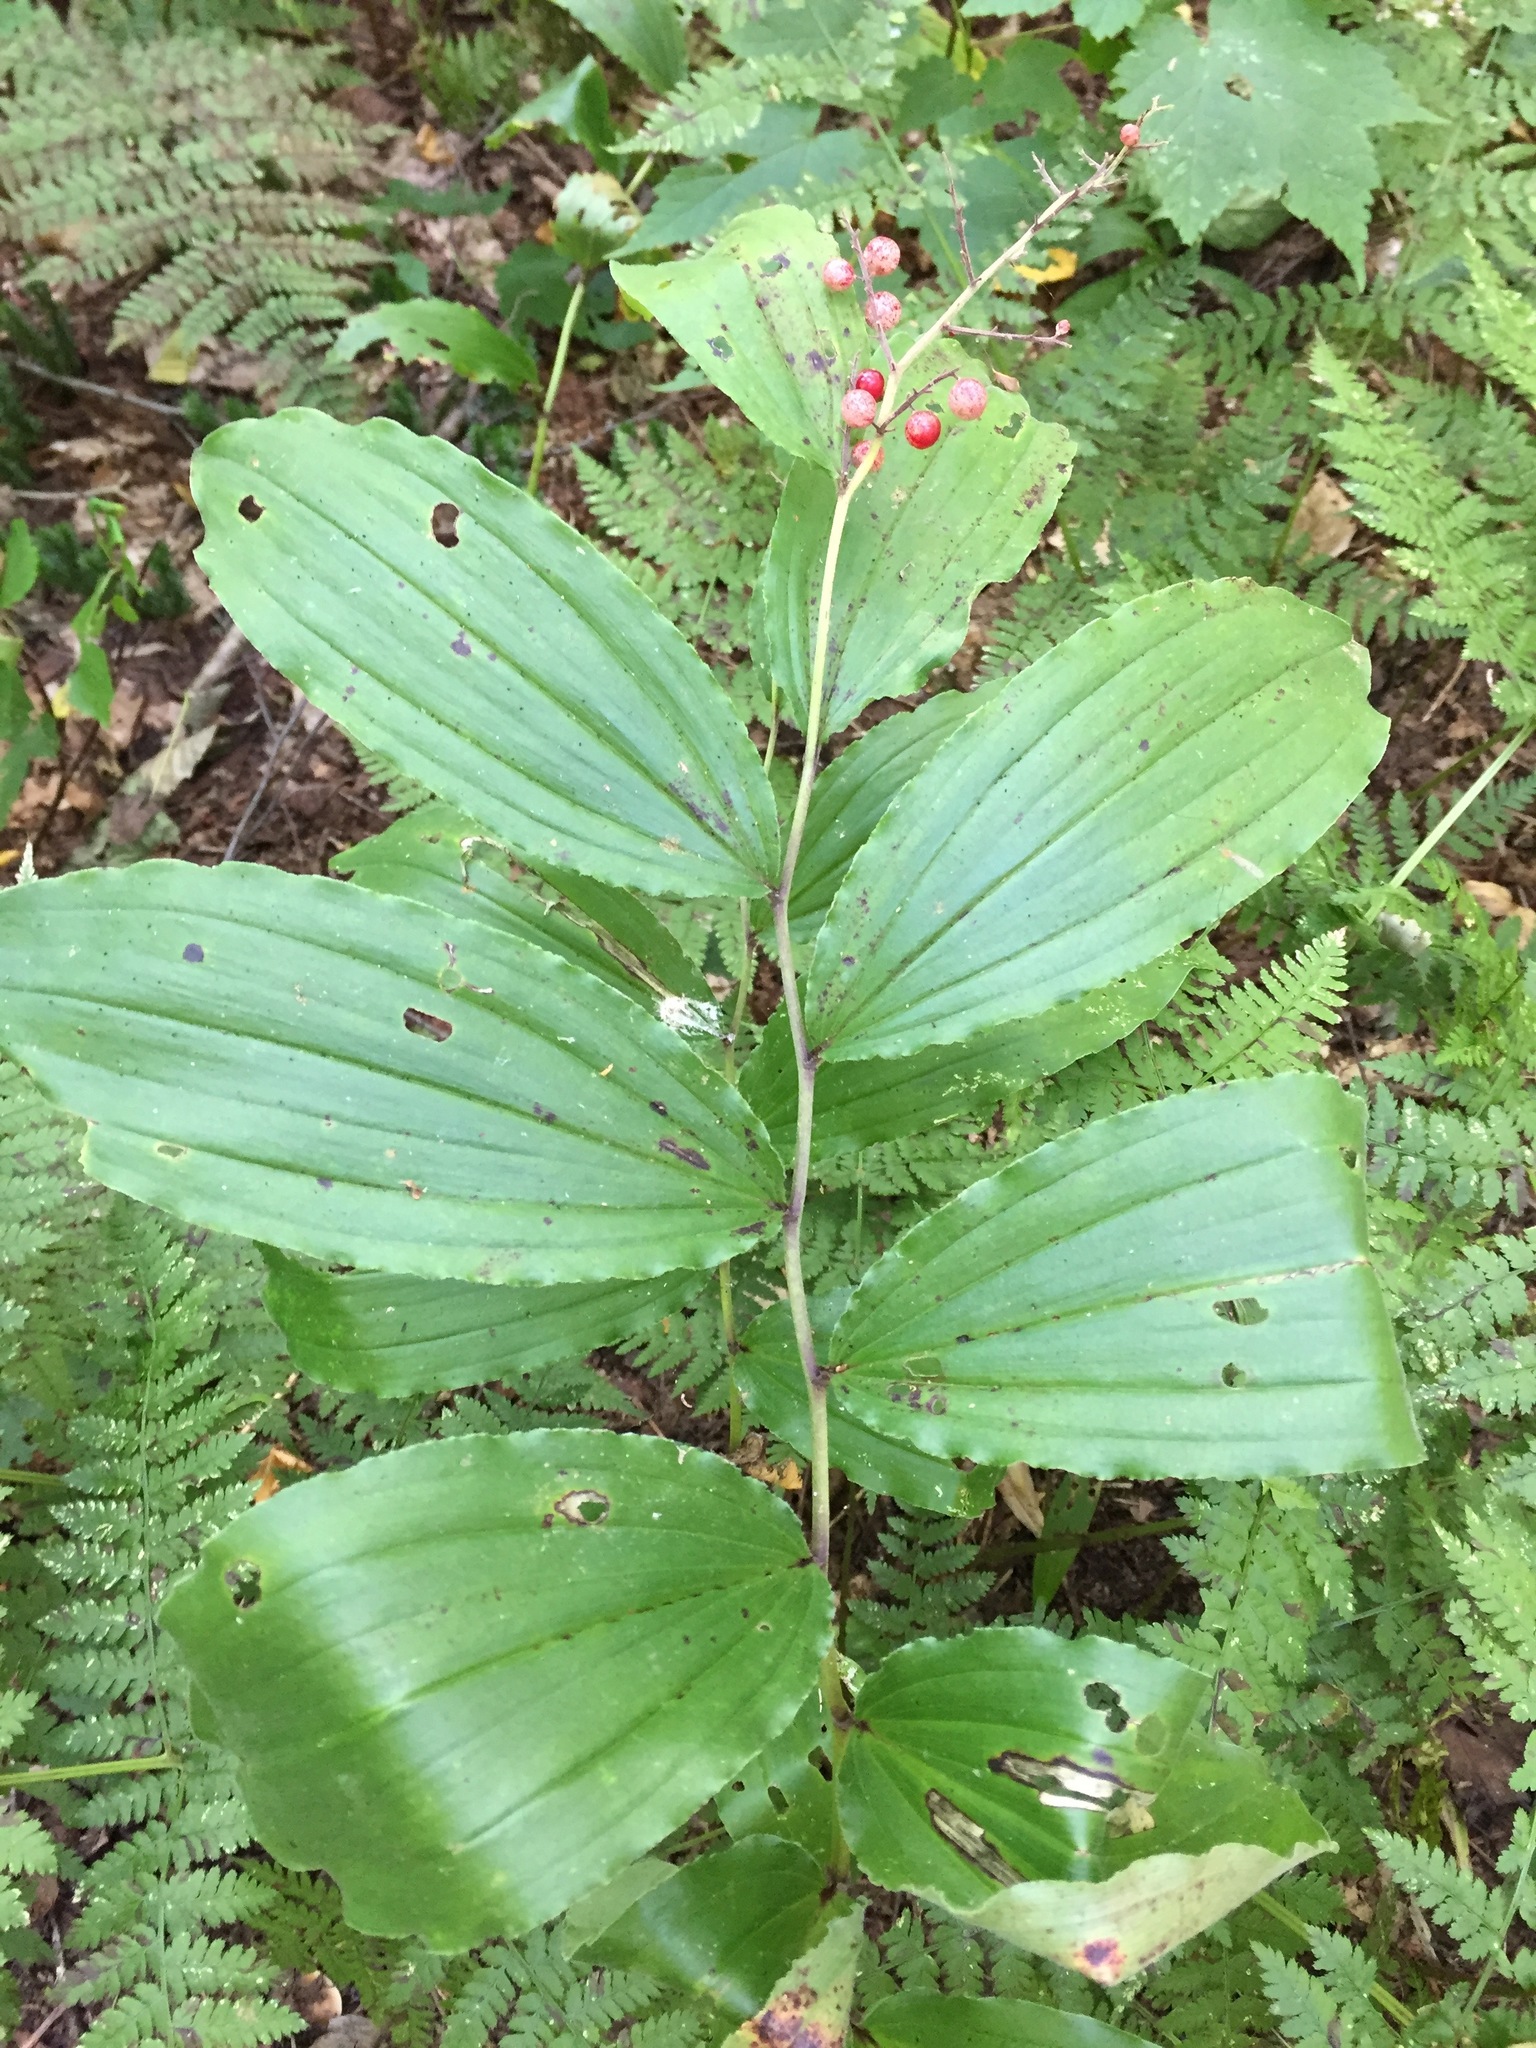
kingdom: Plantae
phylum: Tracheophyta
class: Liliopsida
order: Asparagales
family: Asparagaceae
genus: Maianthemum
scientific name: Maianthemum racemosum
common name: False spikenard
